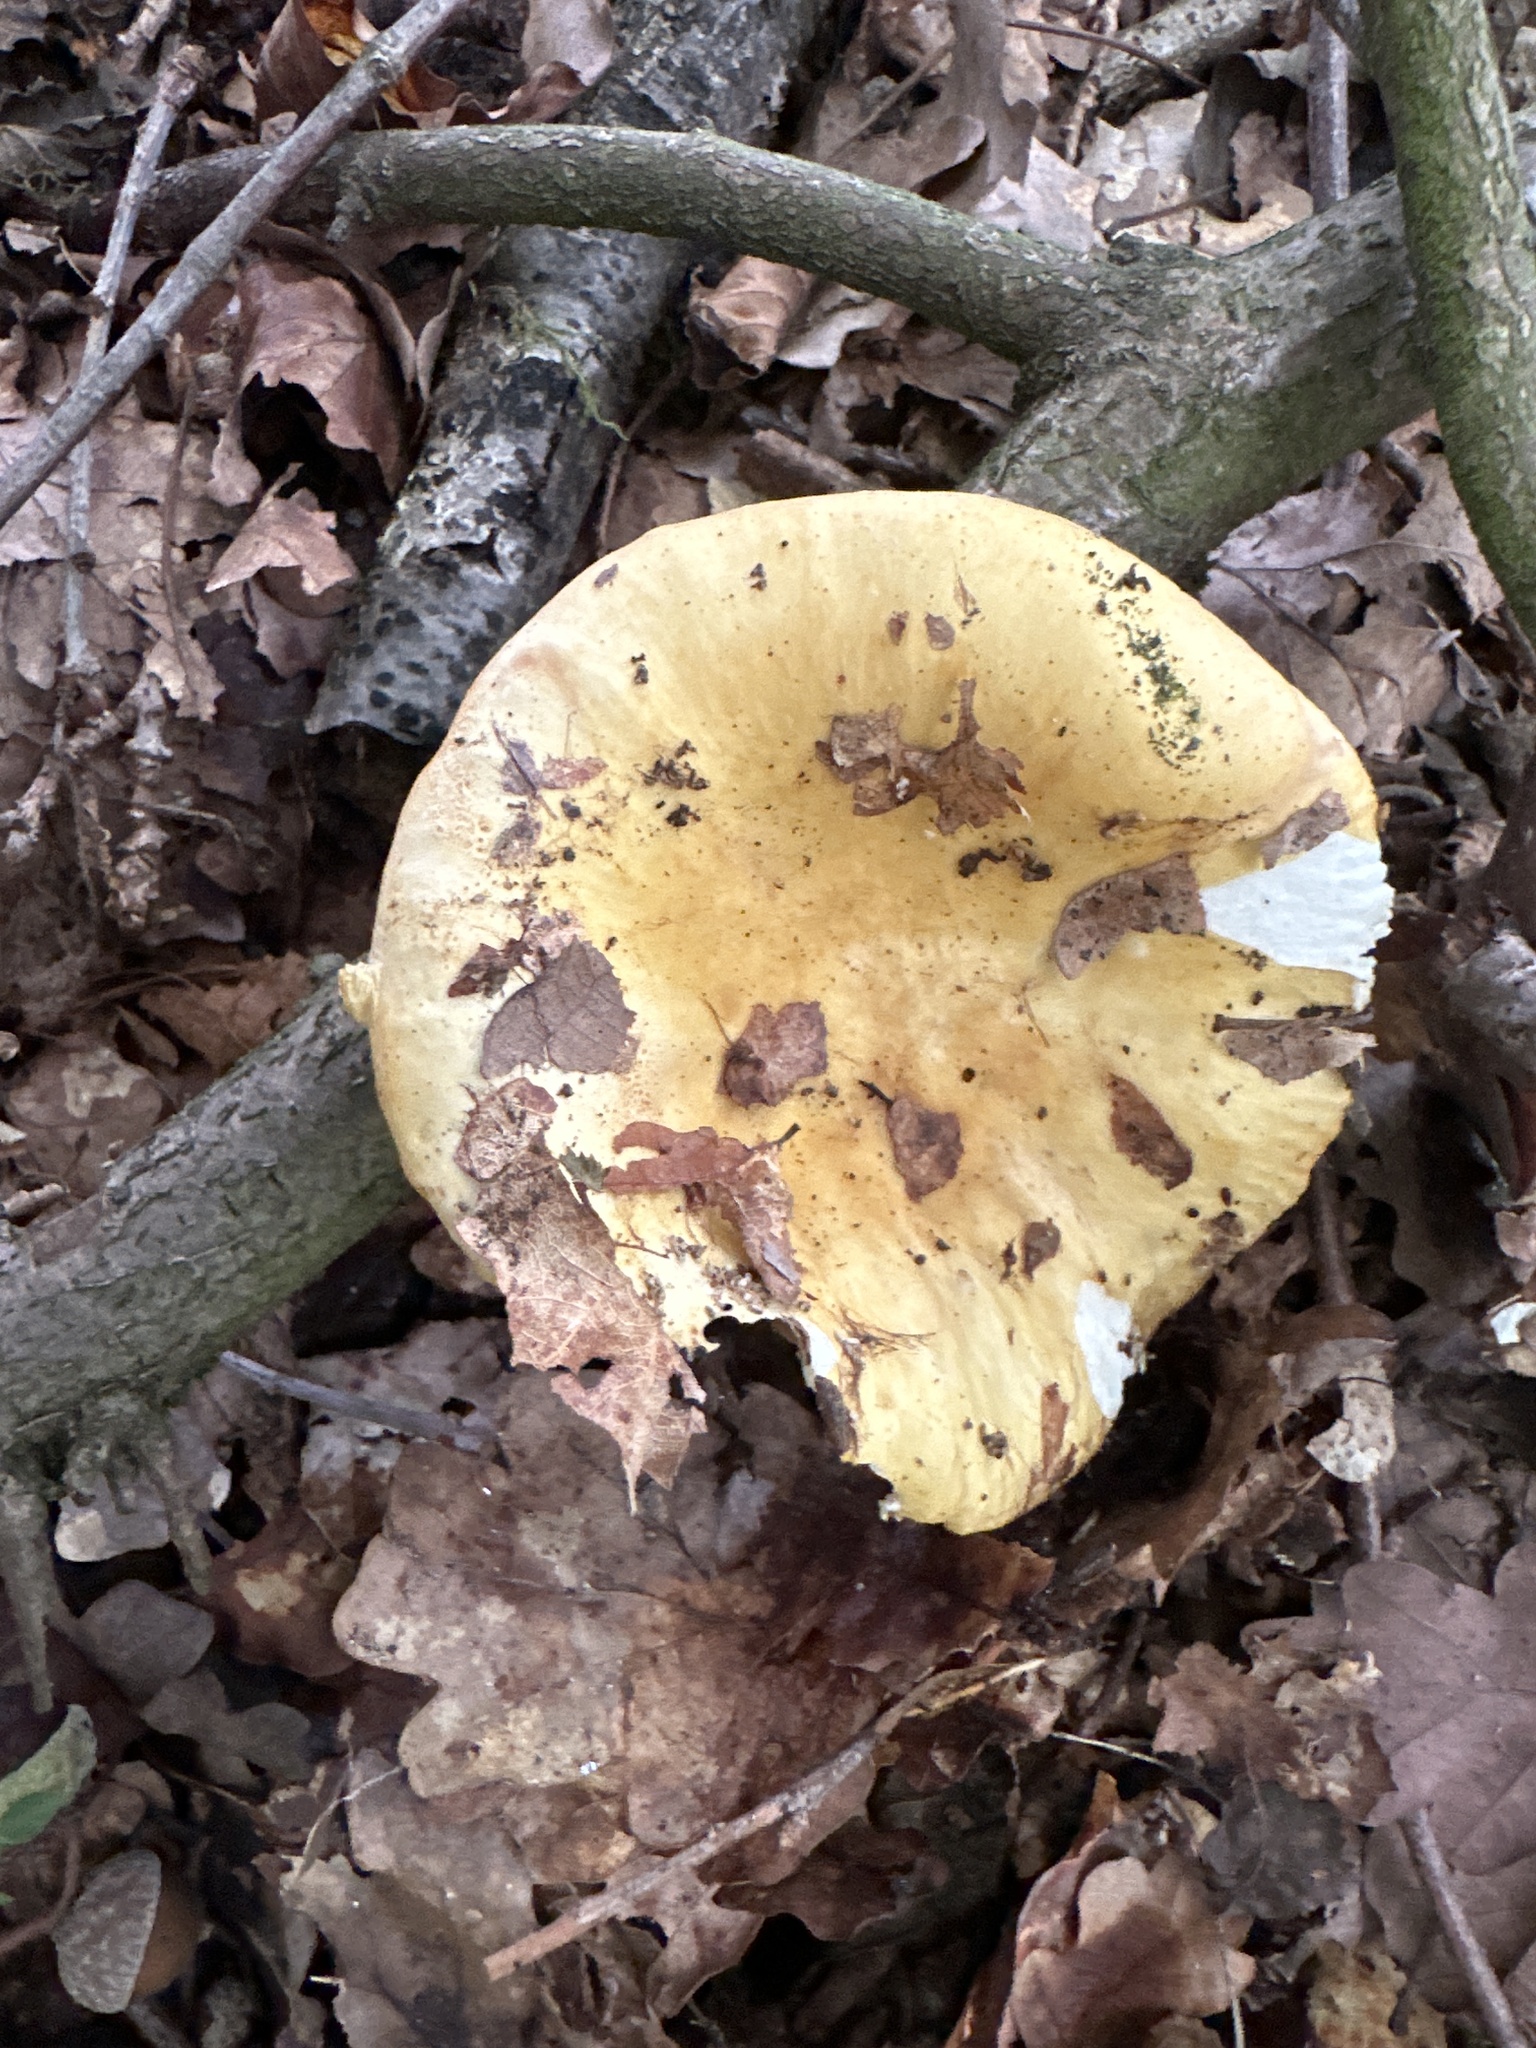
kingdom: Fungi
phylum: Basidiomycota
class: Agaricomycetes
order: Russulales
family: Russulaceae
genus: Russula
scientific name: Russula ochroleuca
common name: Common yellow russula
